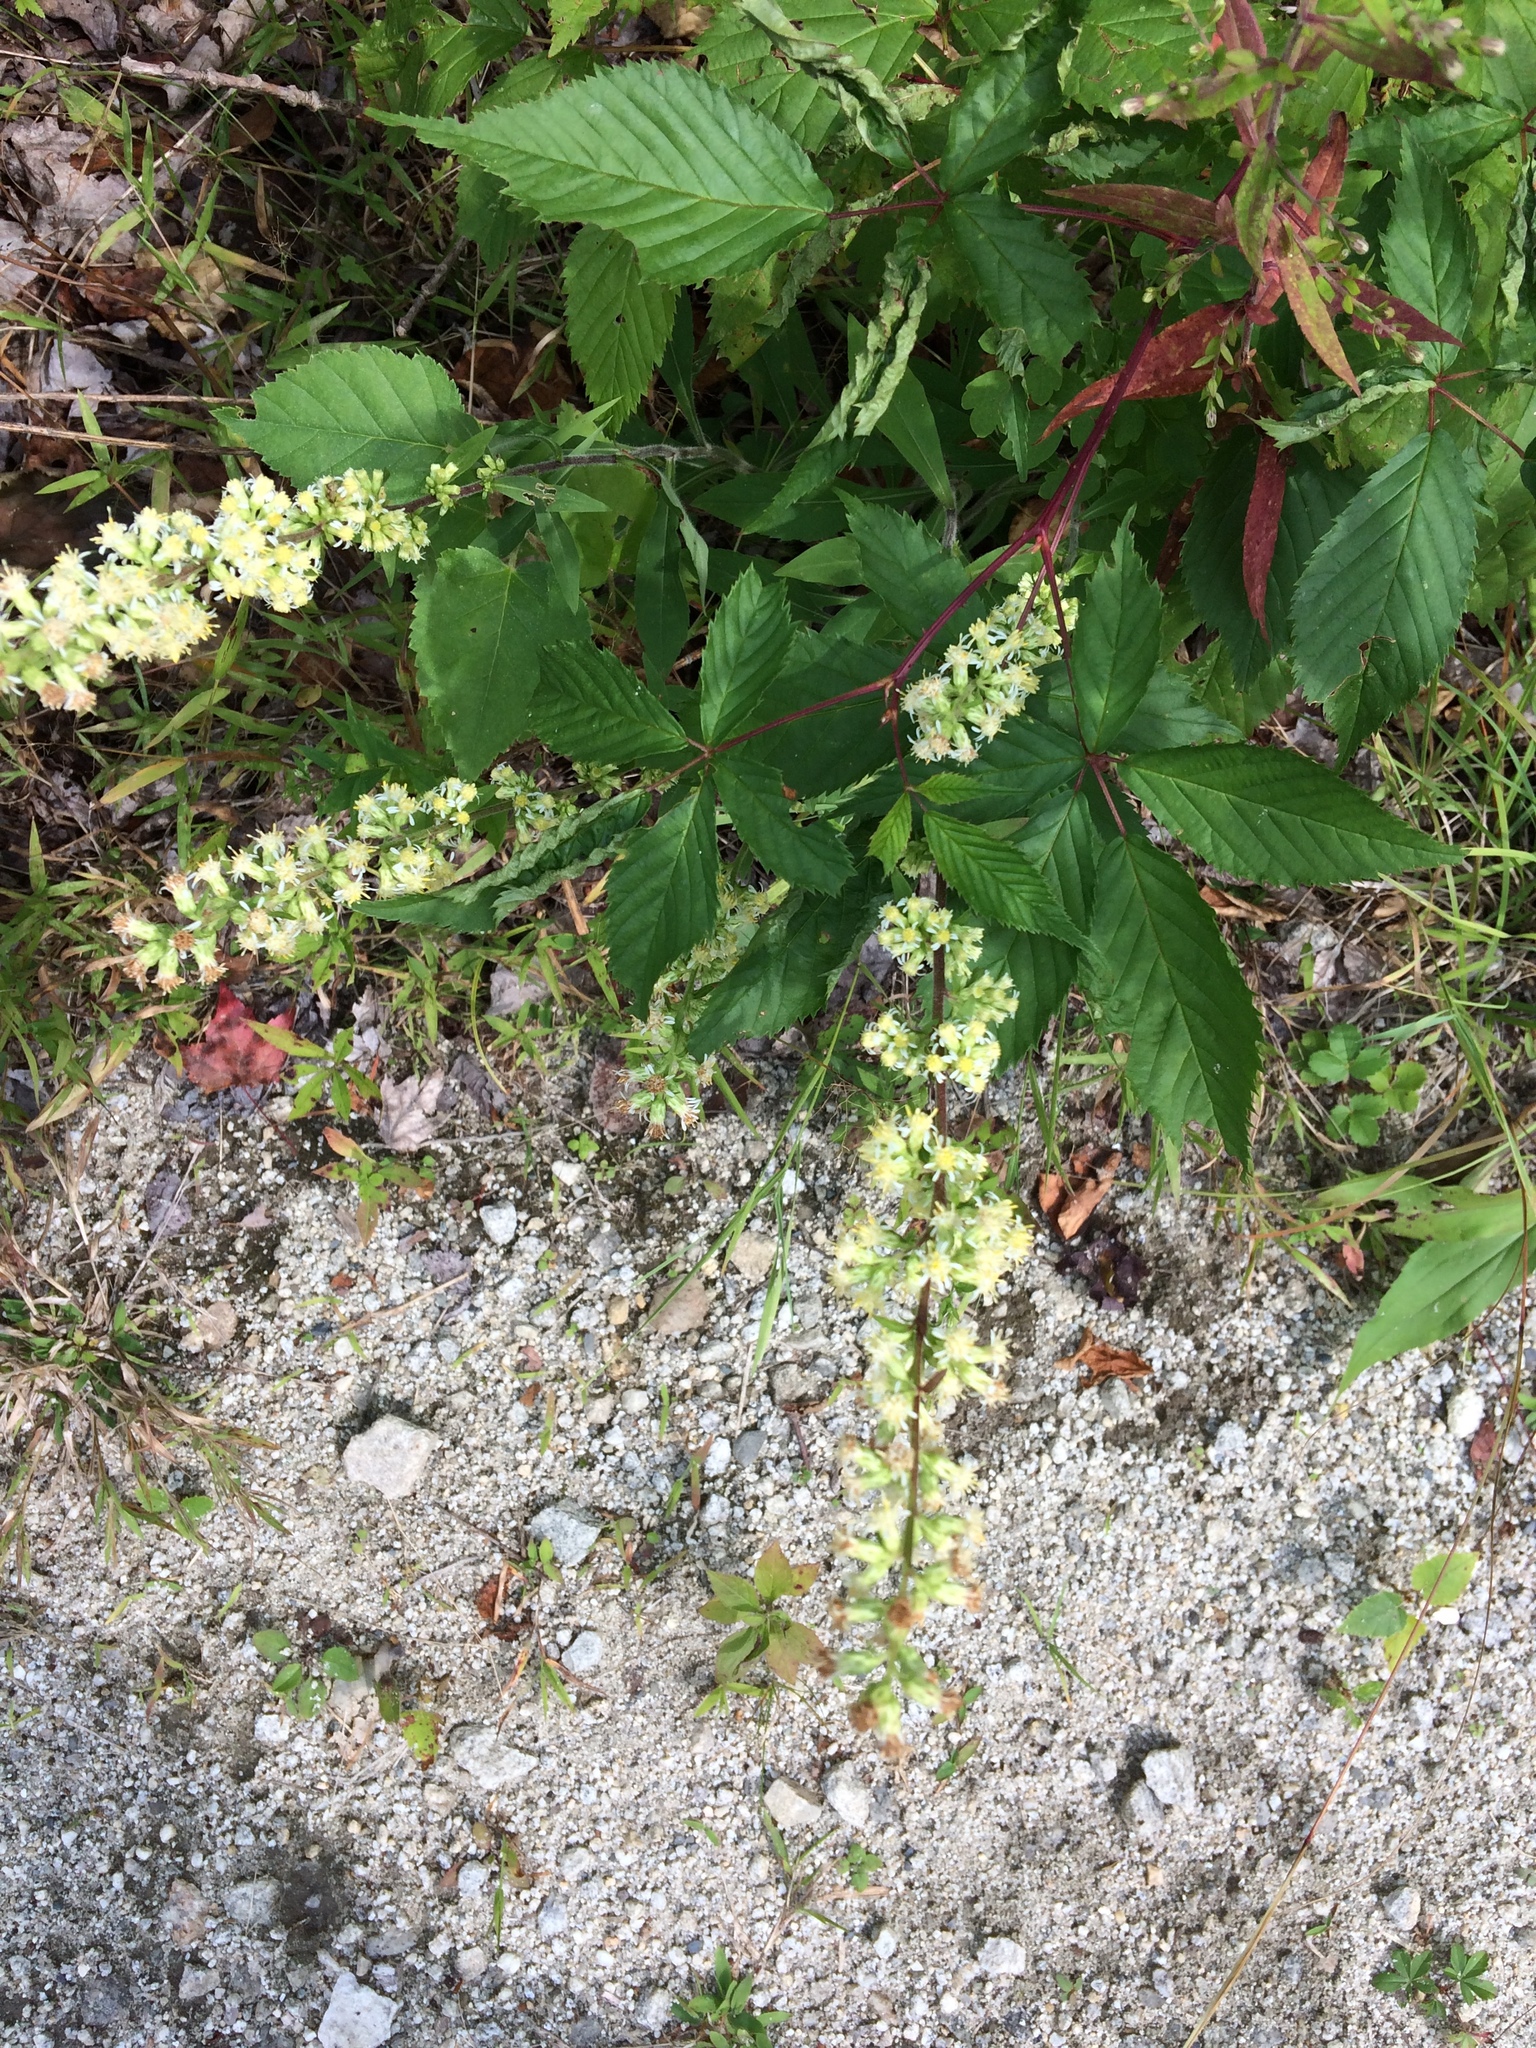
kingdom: Plantae
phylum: Tracheophyta
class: Magnoliopsida
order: Asterales
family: Asteraceae
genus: Solidago
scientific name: Solidago bicolor
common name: Silverrod
